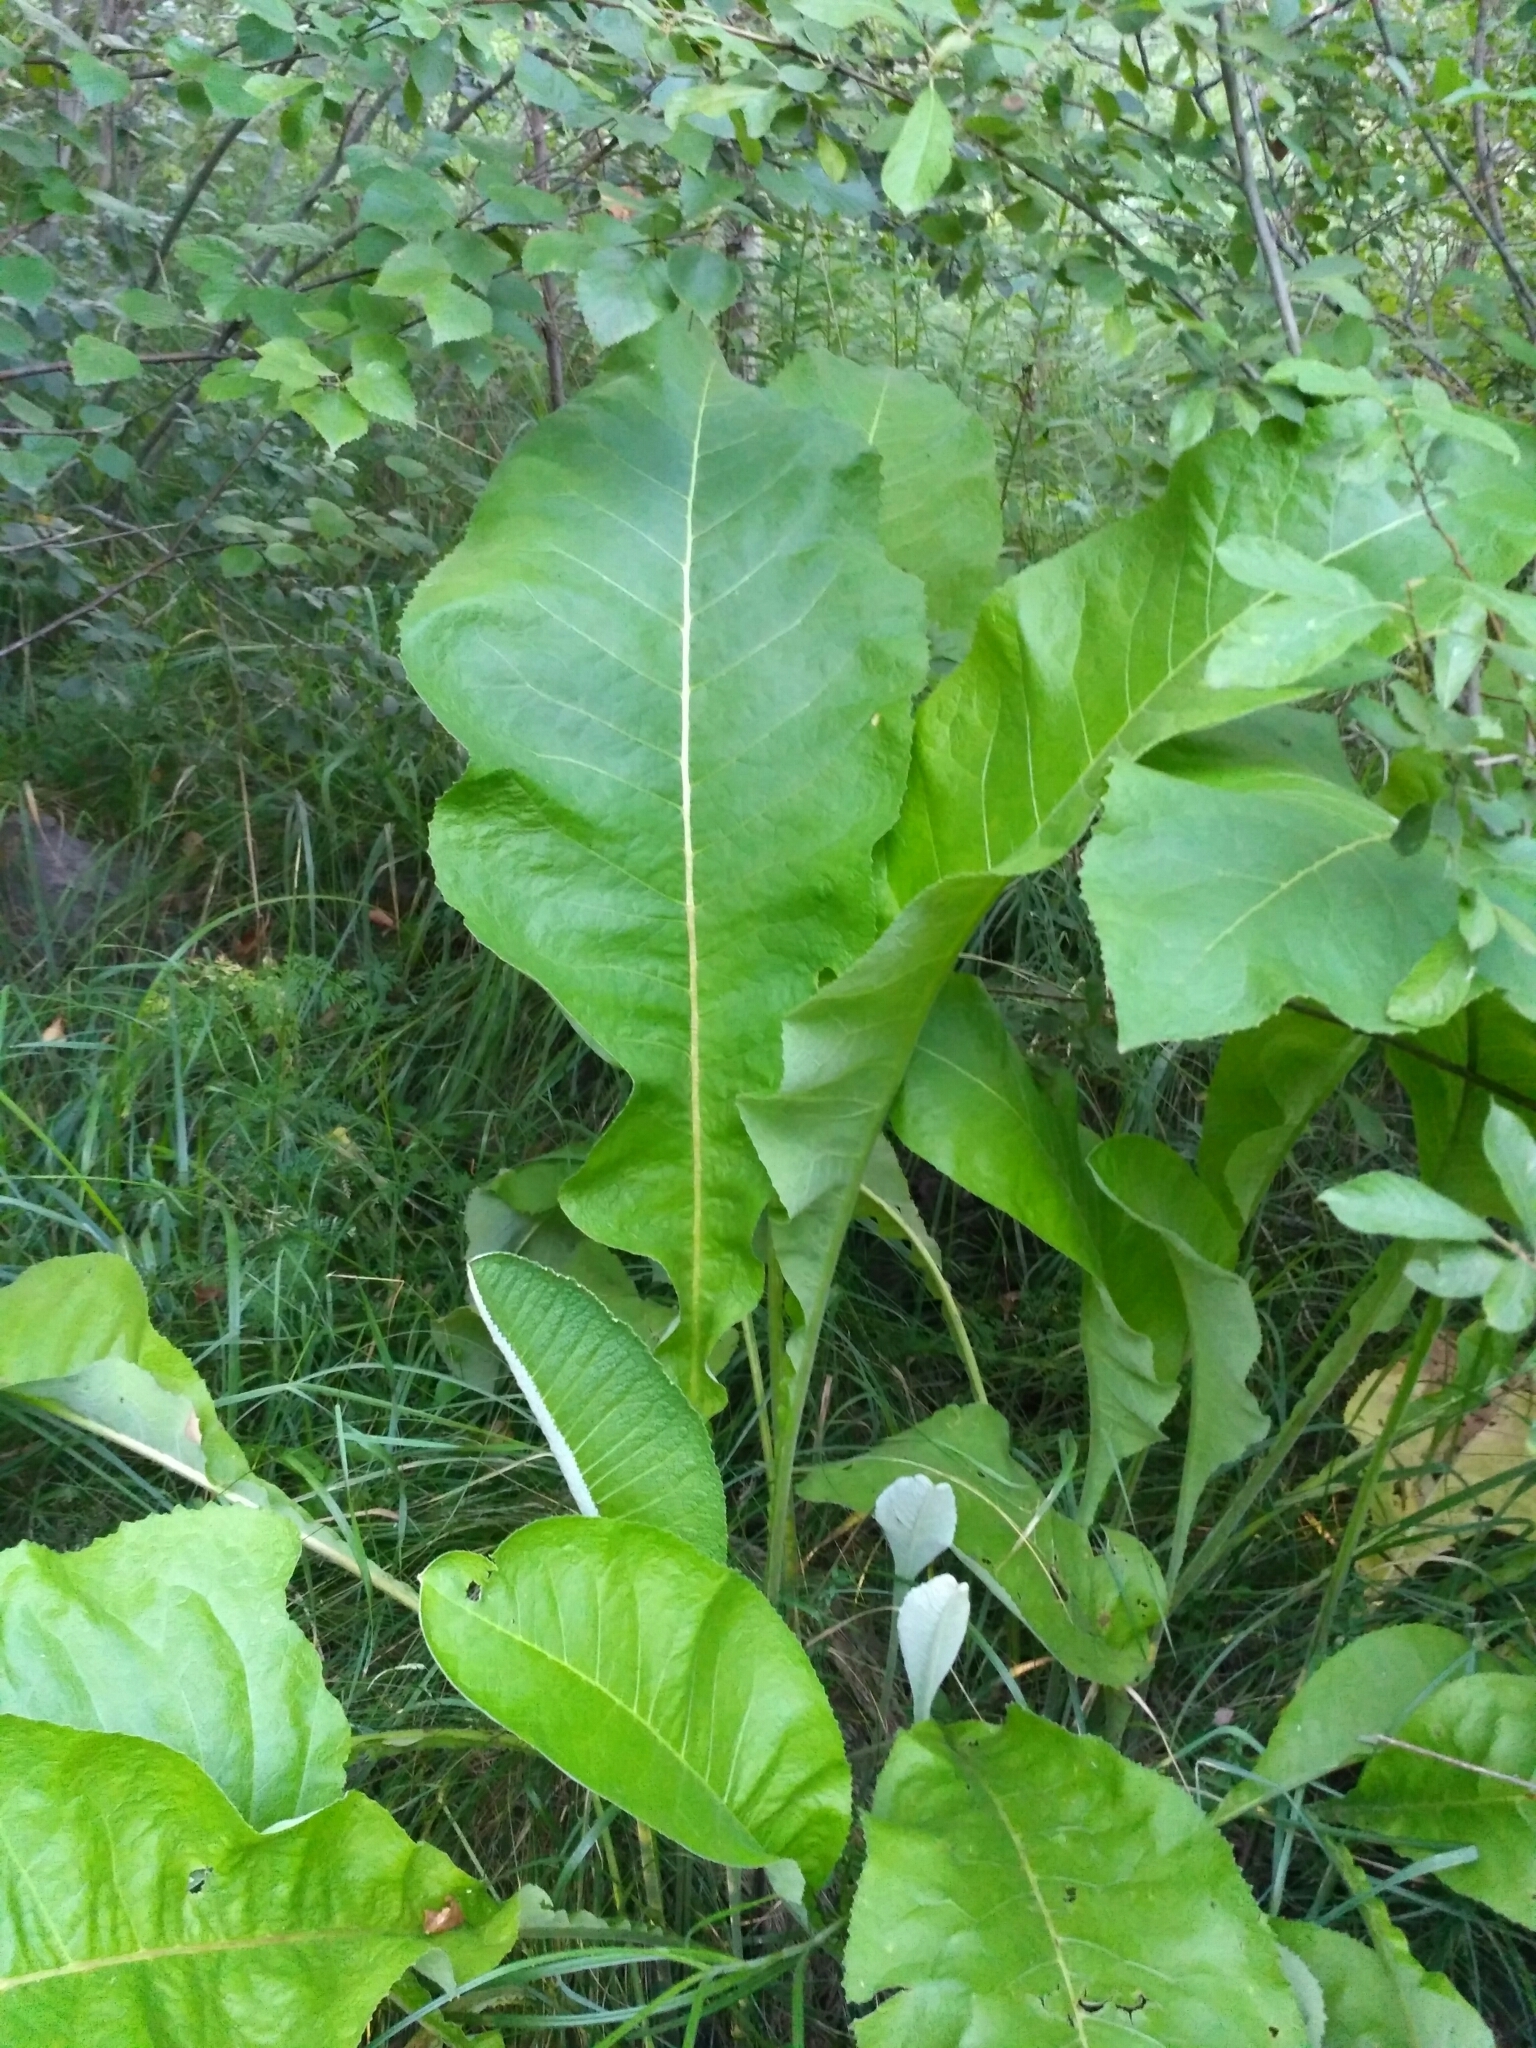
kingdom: Plantae
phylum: Tracheophyta
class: Magnoliopsida
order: Asterales
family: Asteraceae
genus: Inula
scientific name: Inula helenium
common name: Elecampane
